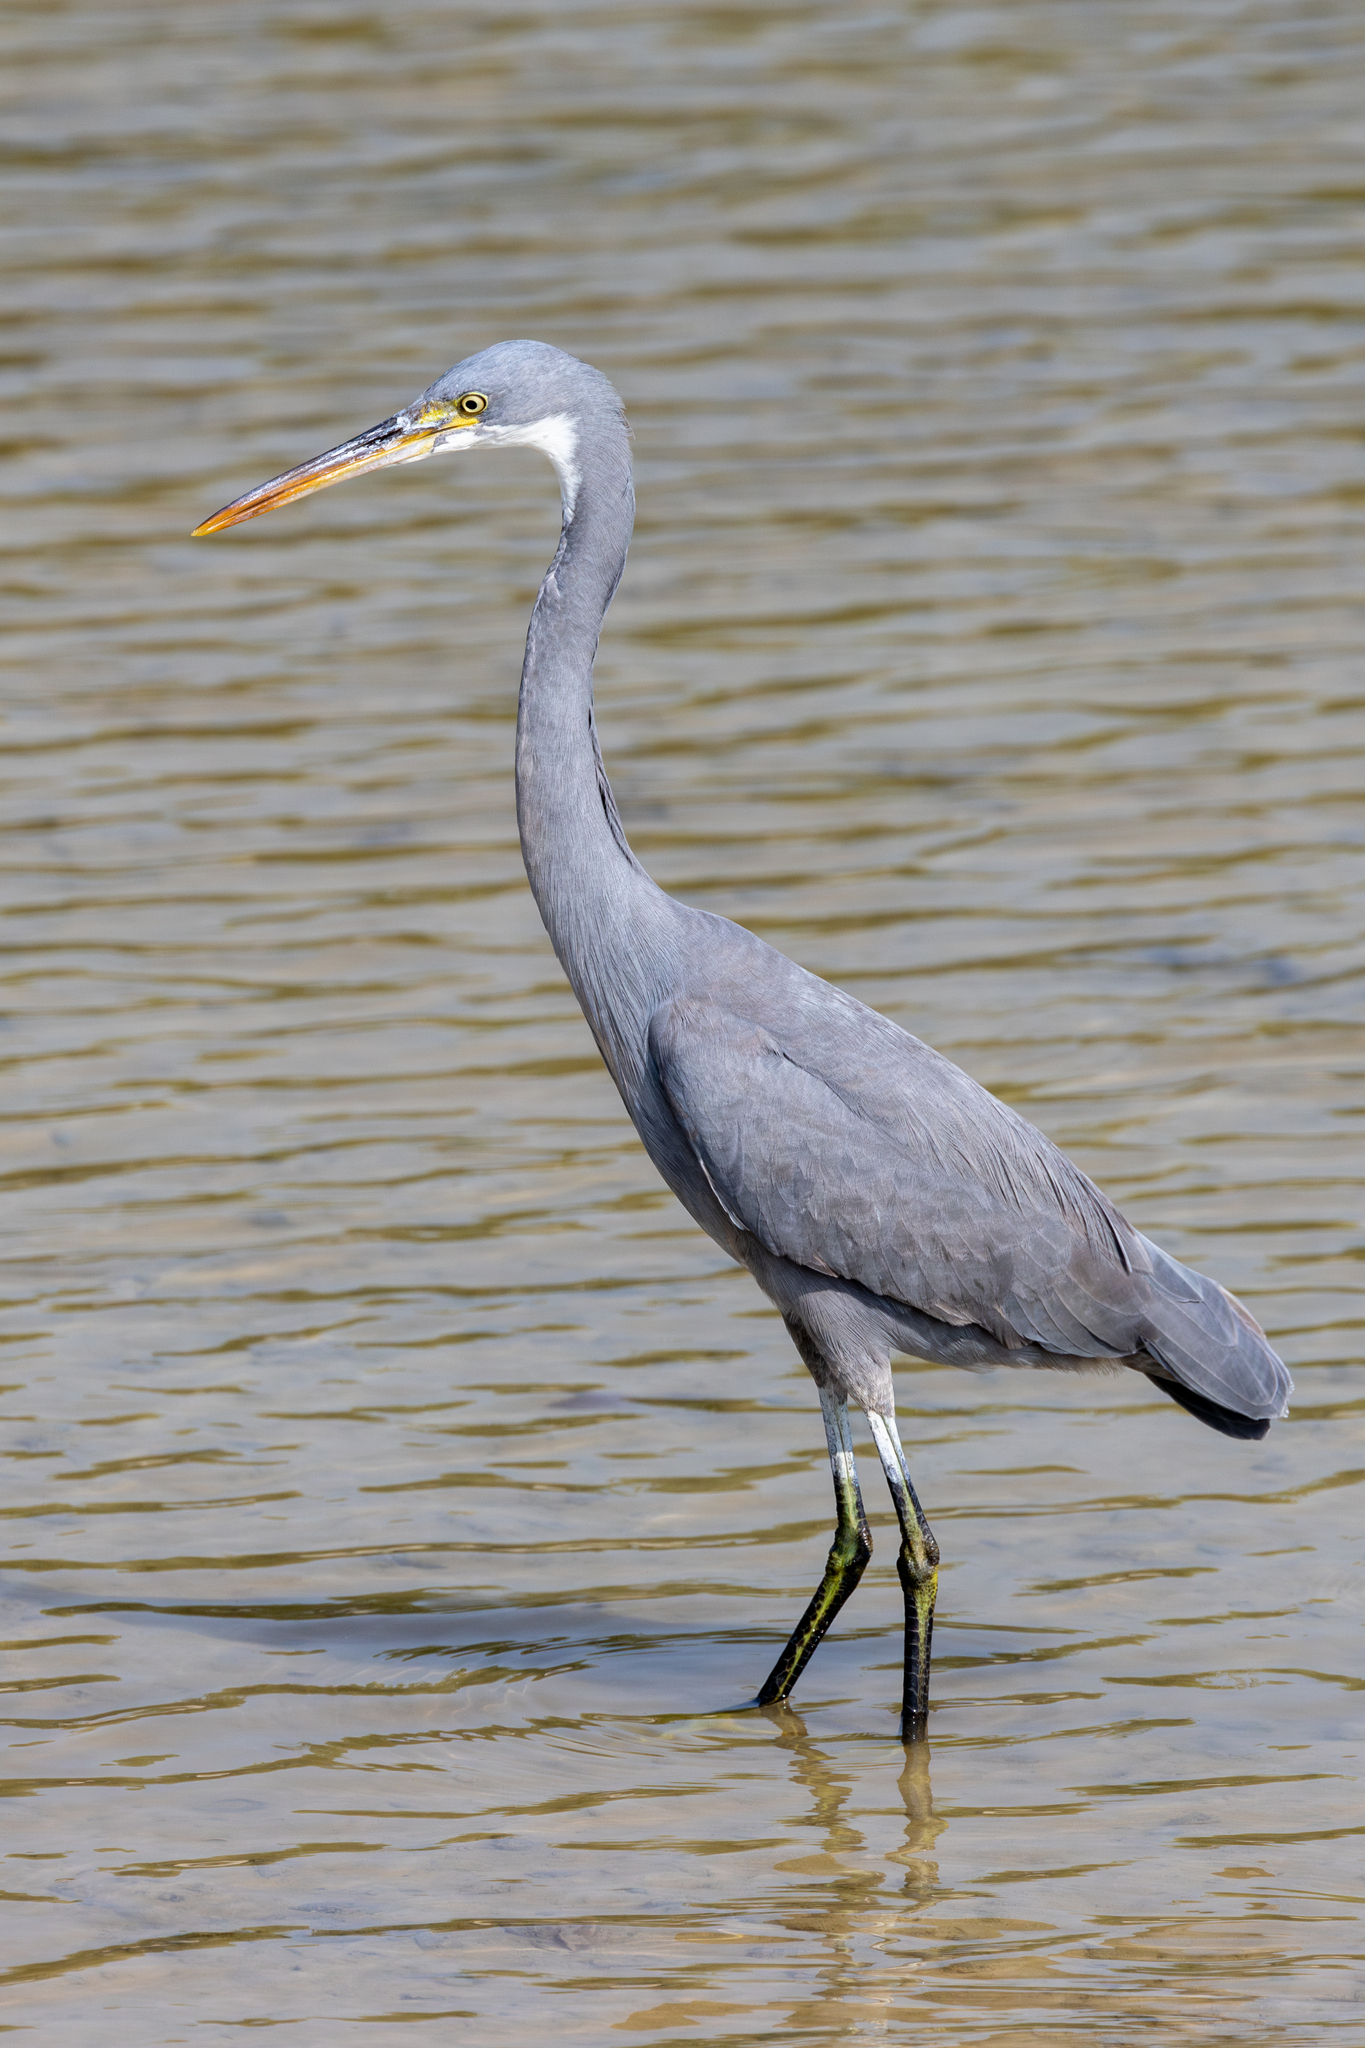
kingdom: Animalia
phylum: Chordata
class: Aves
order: Pelecaniformes
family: Ardeidae
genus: Egretta
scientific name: Egretta gularis
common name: Western reef-heron
